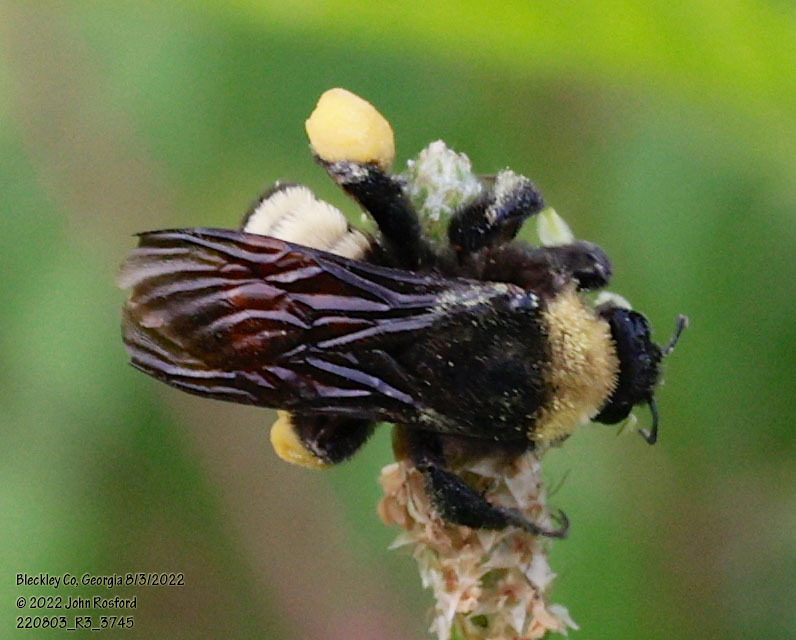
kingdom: Animalia
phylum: Arthropoda
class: Insecta
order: Hymenoptera
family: Apidae
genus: Bombus
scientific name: Bombus pensylvanicus
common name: Bumble bee
